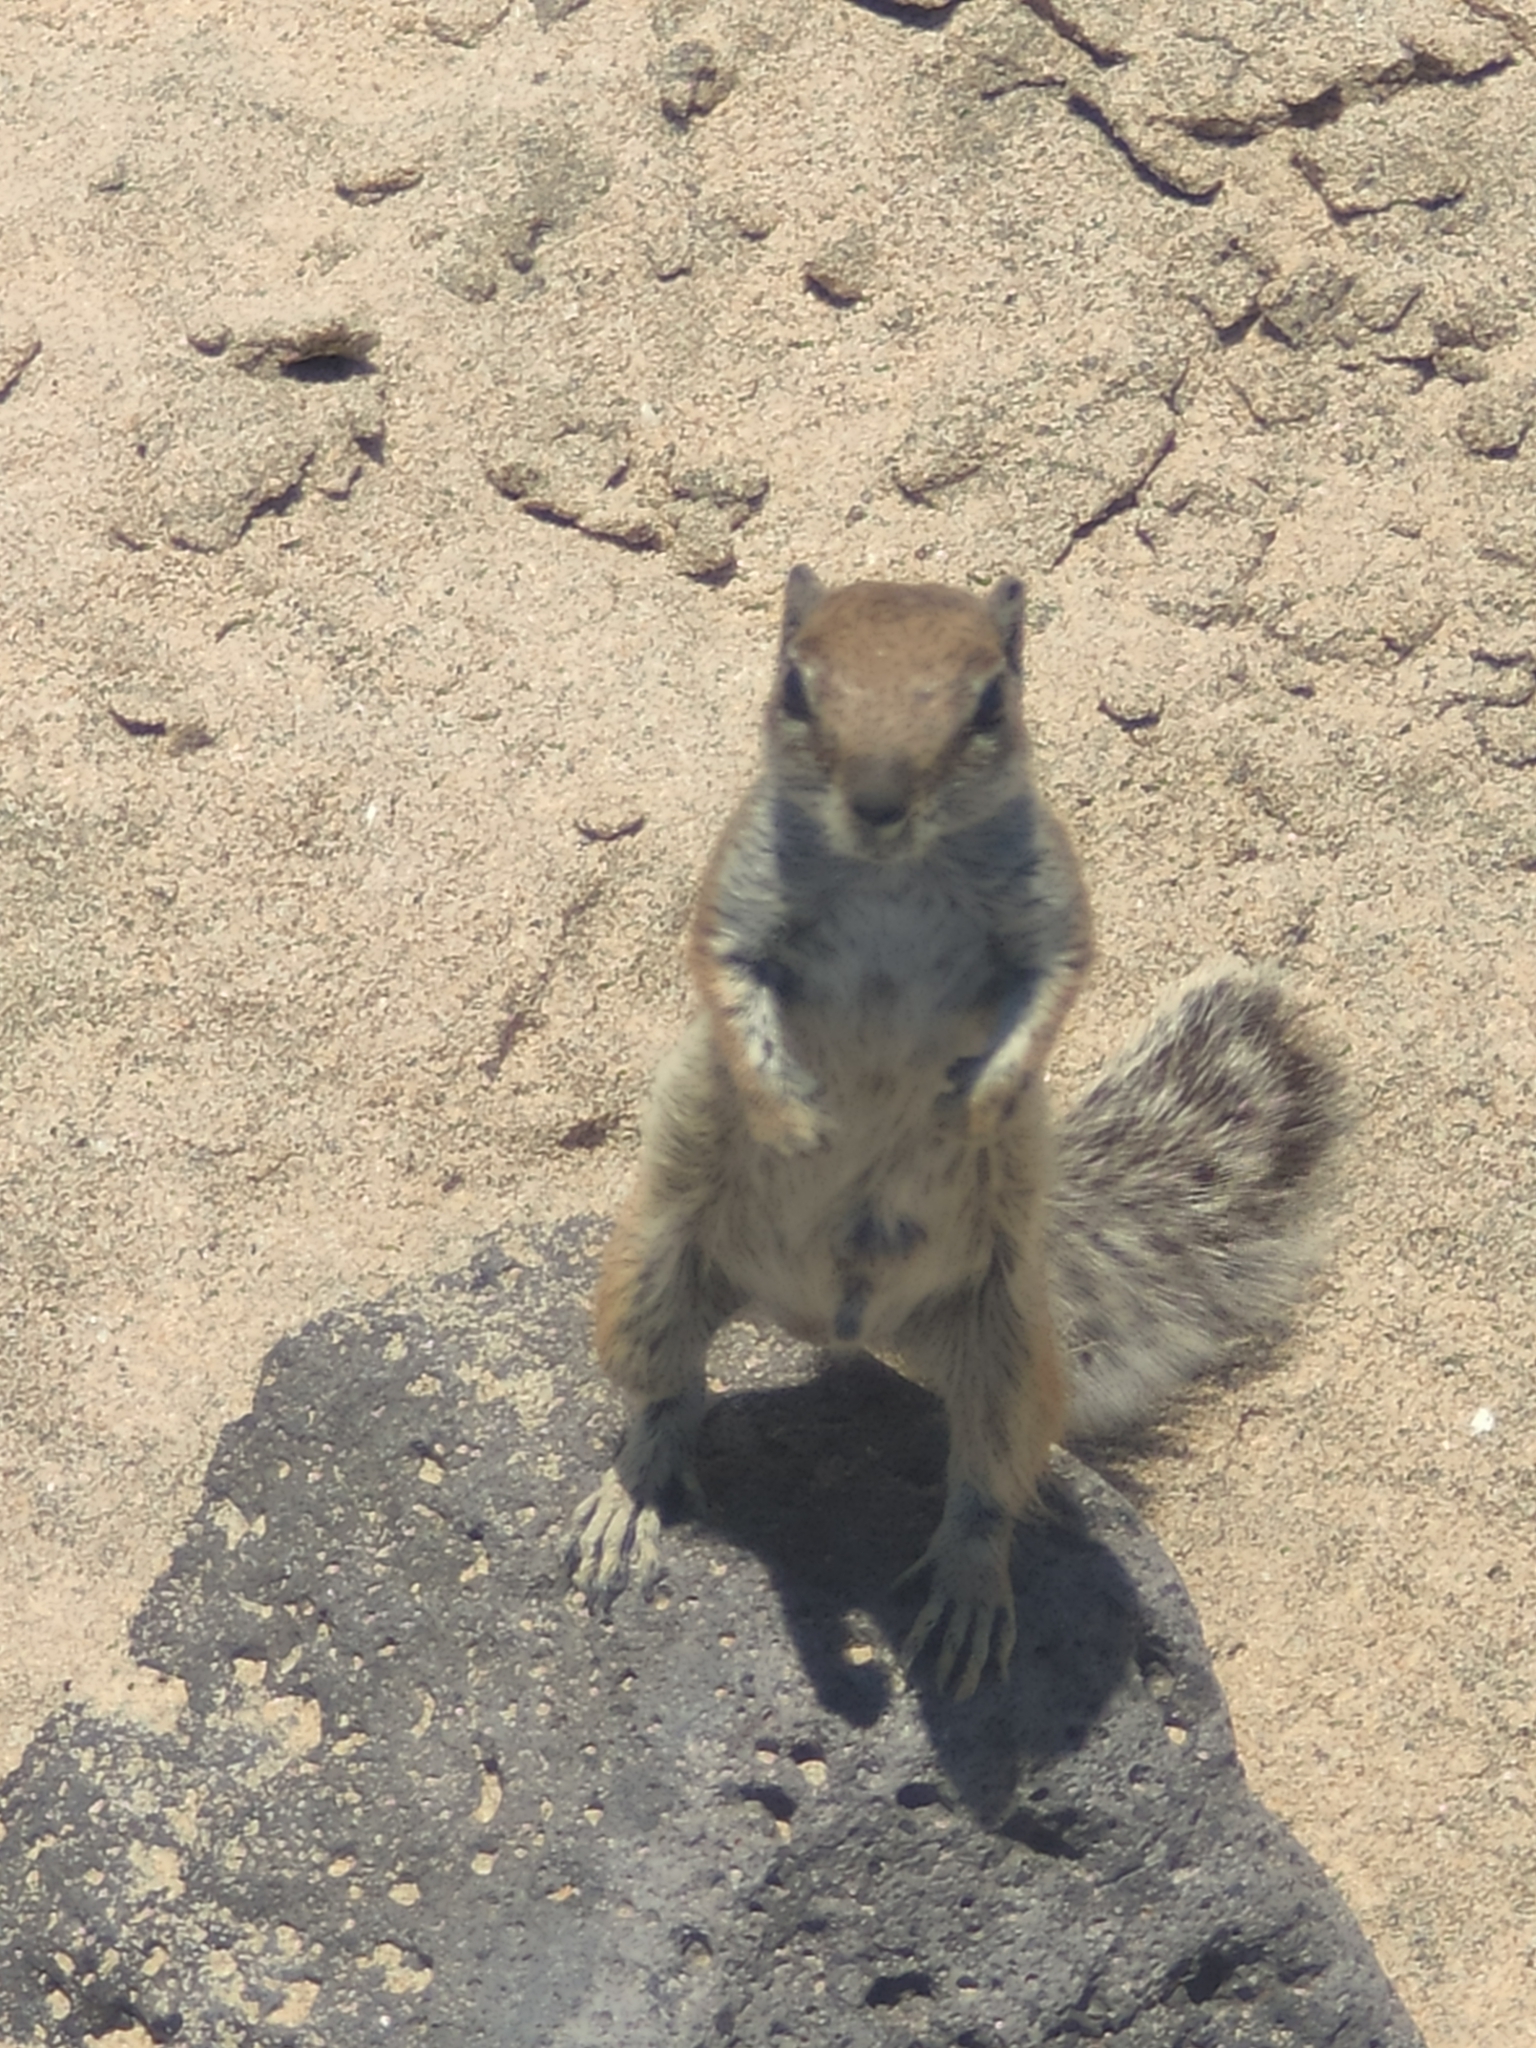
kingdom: Animalia
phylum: Chordata
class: Mammalia
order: Rodentia
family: Sciuridae
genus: Atlantoxerus
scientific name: Atlantoxerus getulus
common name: Barbary ground squirrel
